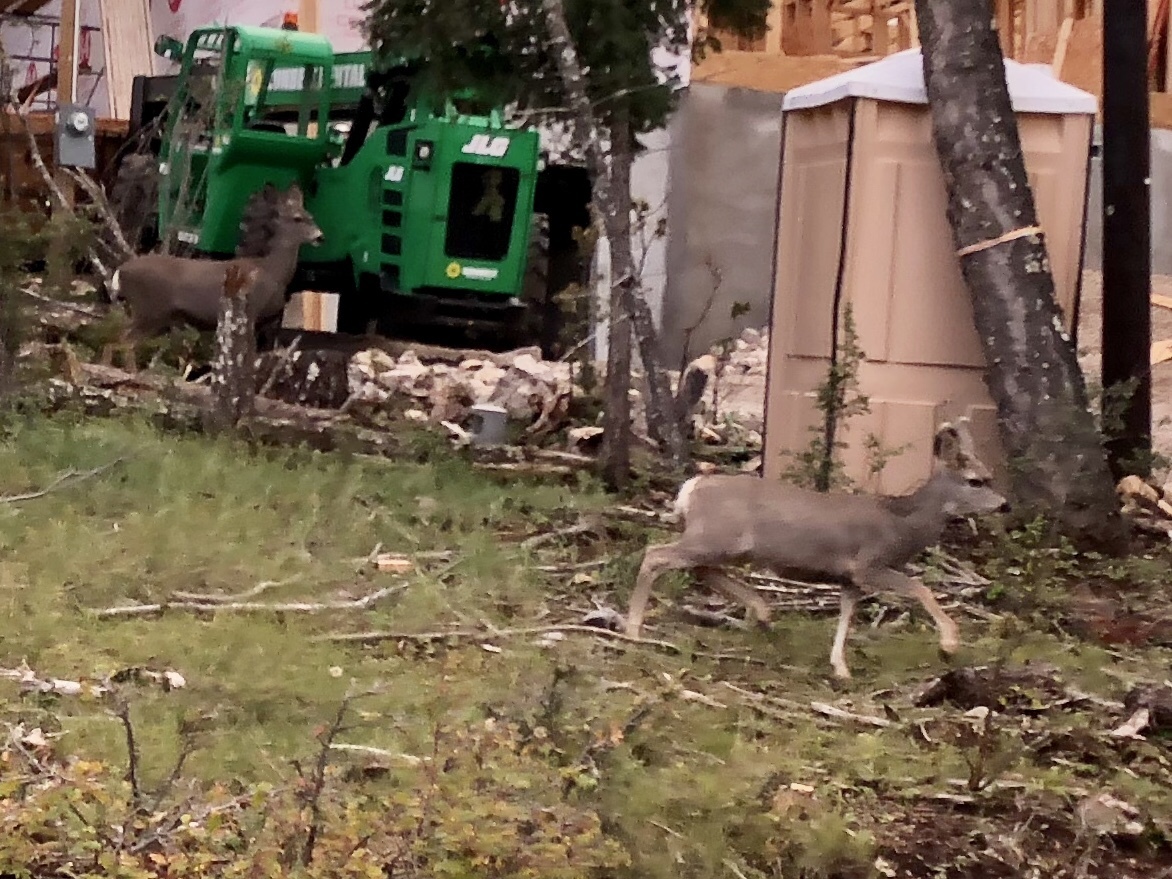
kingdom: Animalia
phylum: Chordata
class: Mammalia
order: Artiodactyla
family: Cervidae
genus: Odocoileus
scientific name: Odocoileus hemionus
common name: Mule deer
